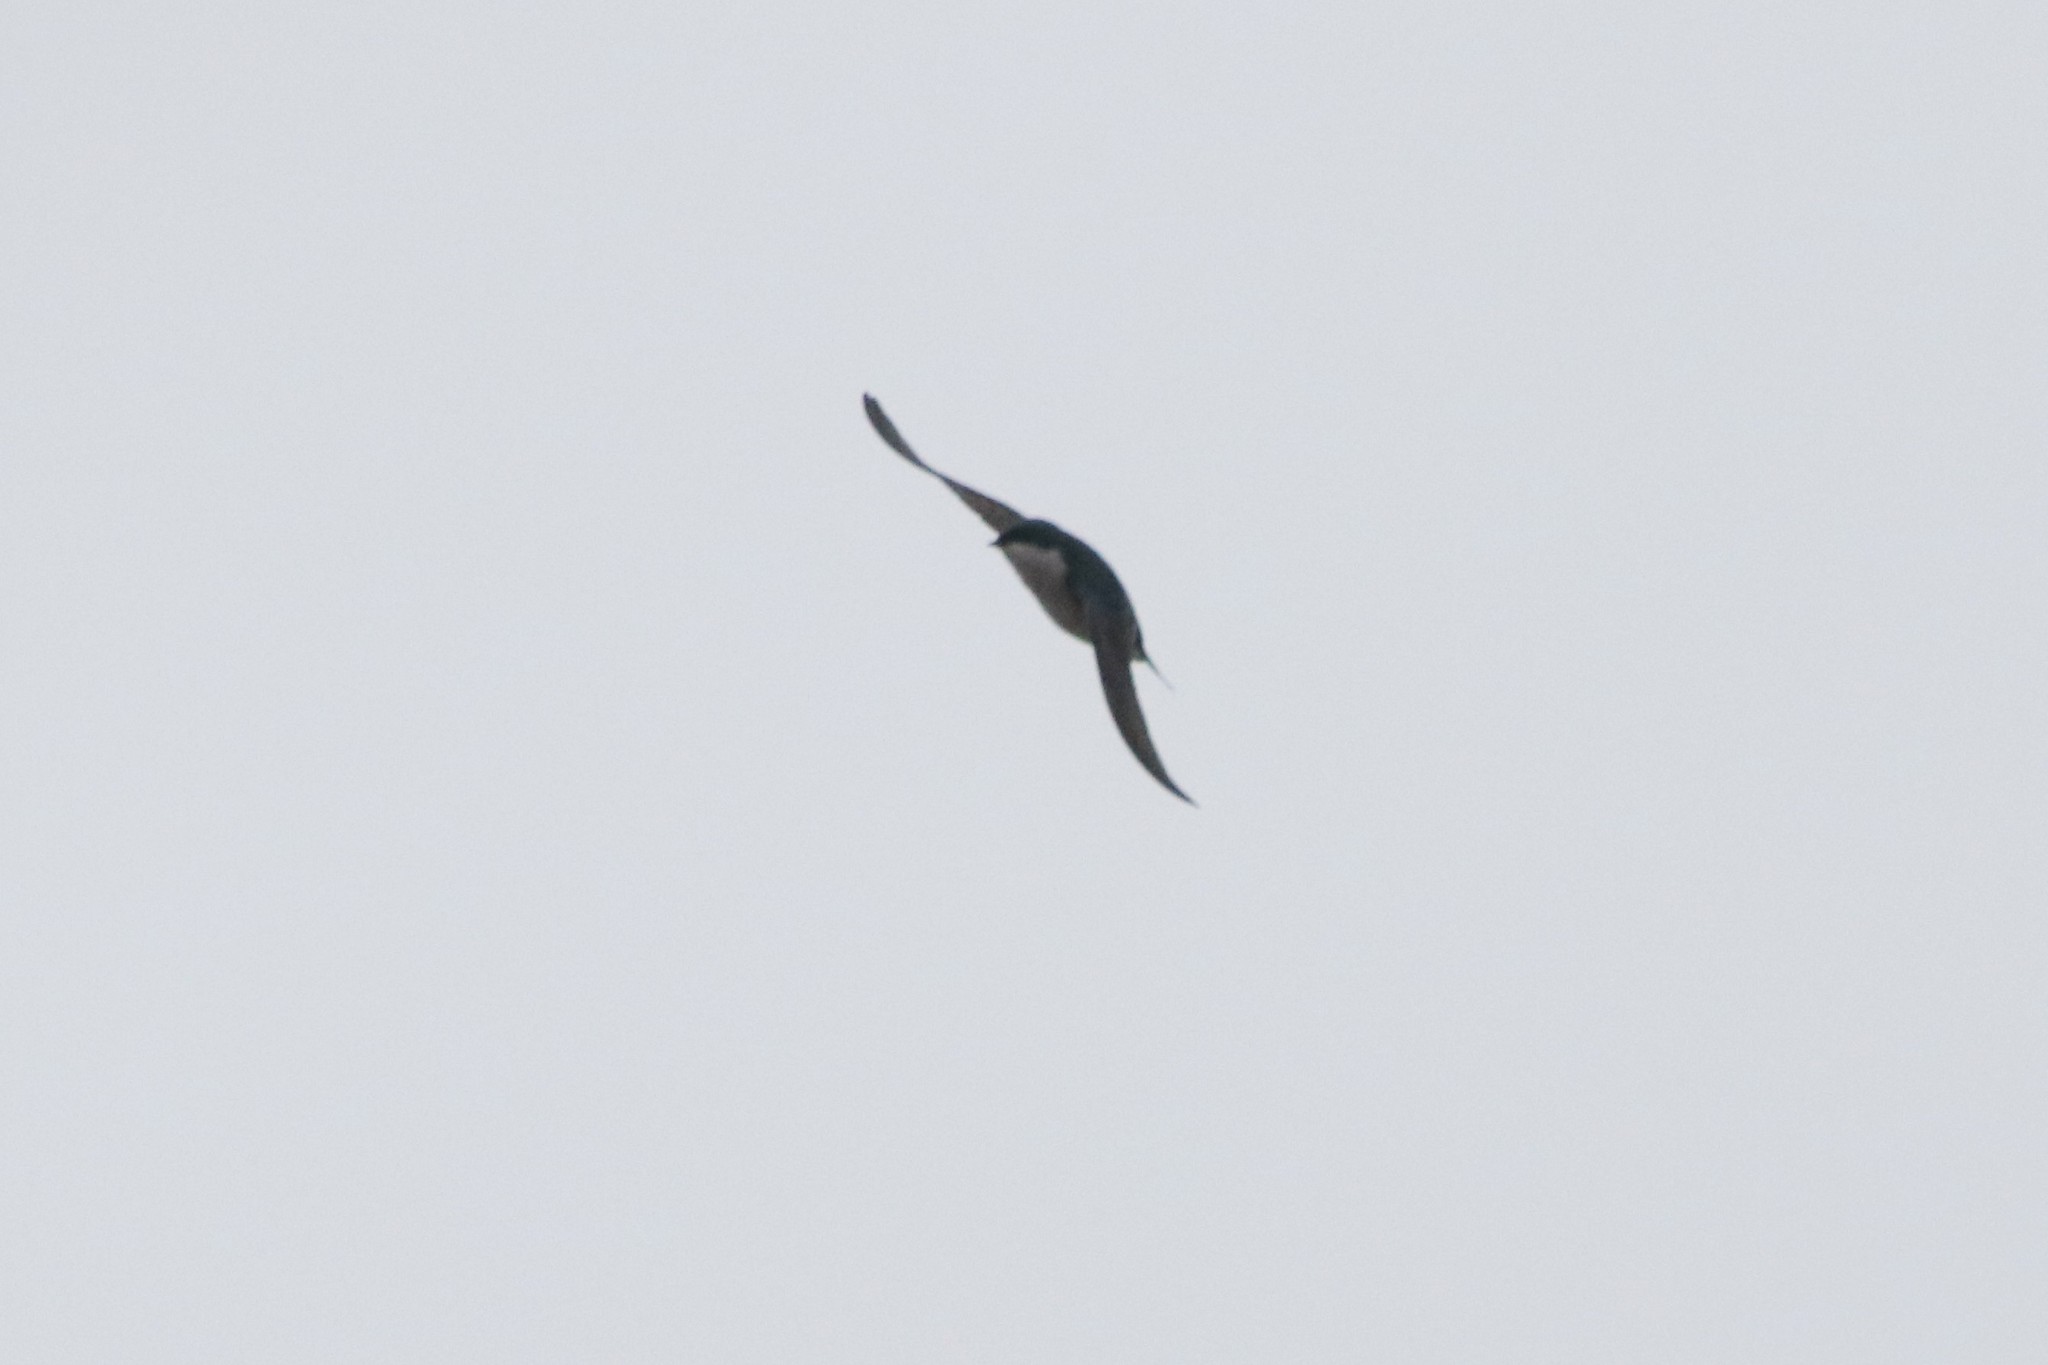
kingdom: Animalia
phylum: Chordata
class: Aves
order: Passeriformes
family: Hirundinidae
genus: Tachycineta
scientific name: Tachycineta bicolor
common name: Tree swallow
